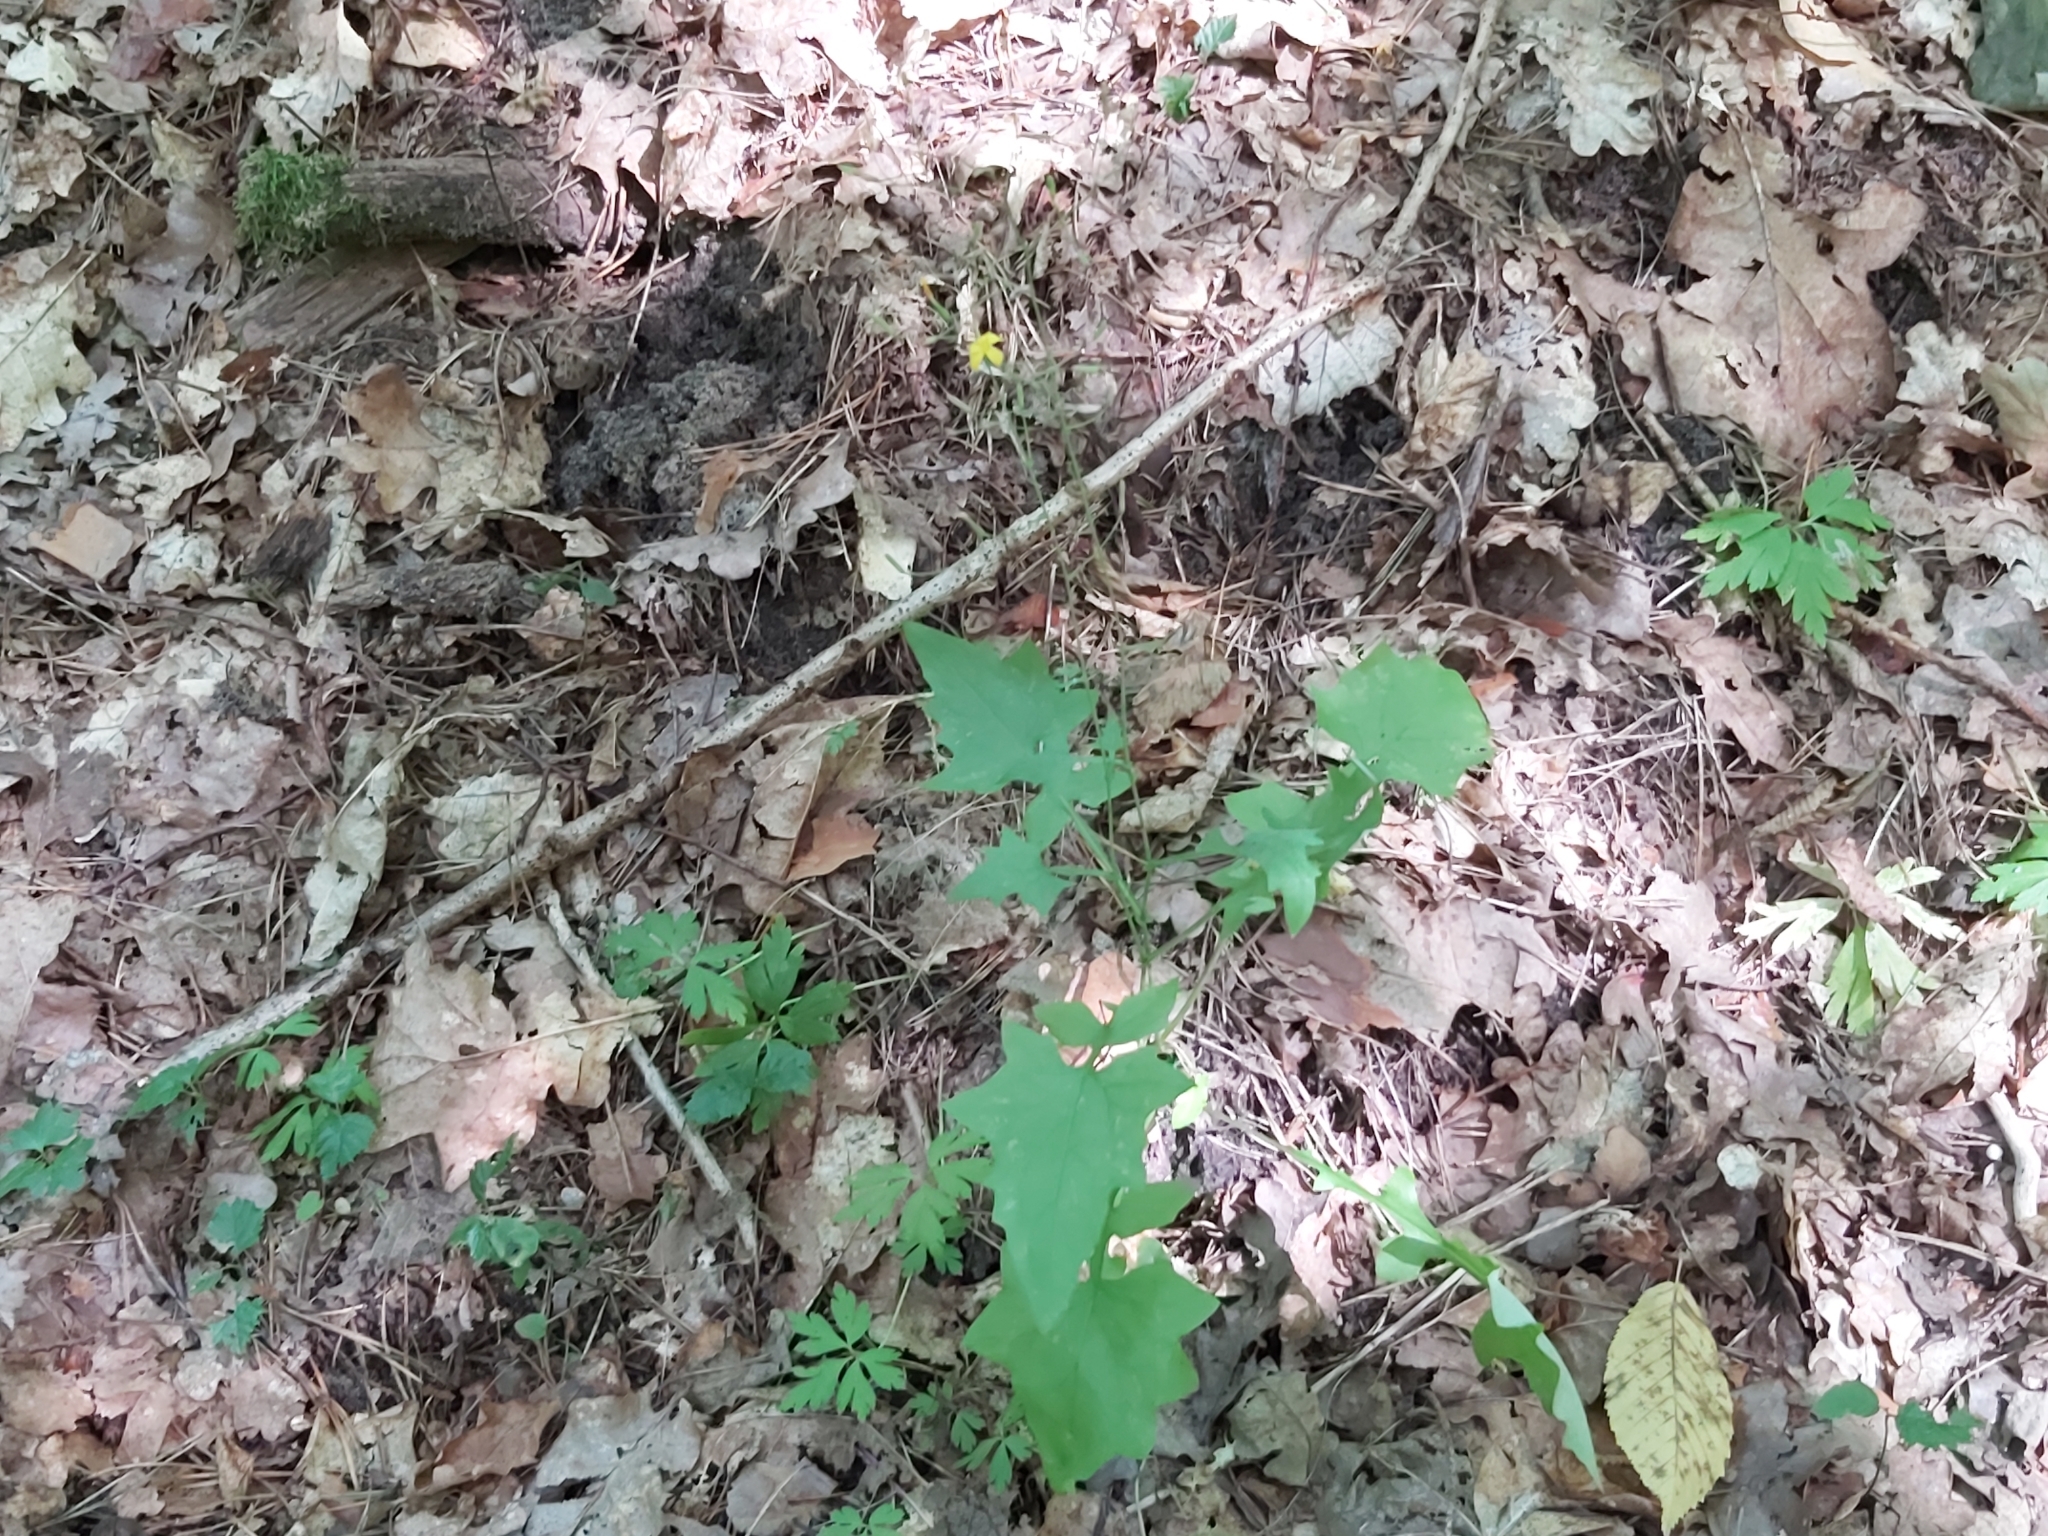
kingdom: Plantae
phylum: Tracheophyta
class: Magnoliopsida
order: Asterales
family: Asteraceae
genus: Mycelis
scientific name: Mycelis muralis
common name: Wall lettuce
